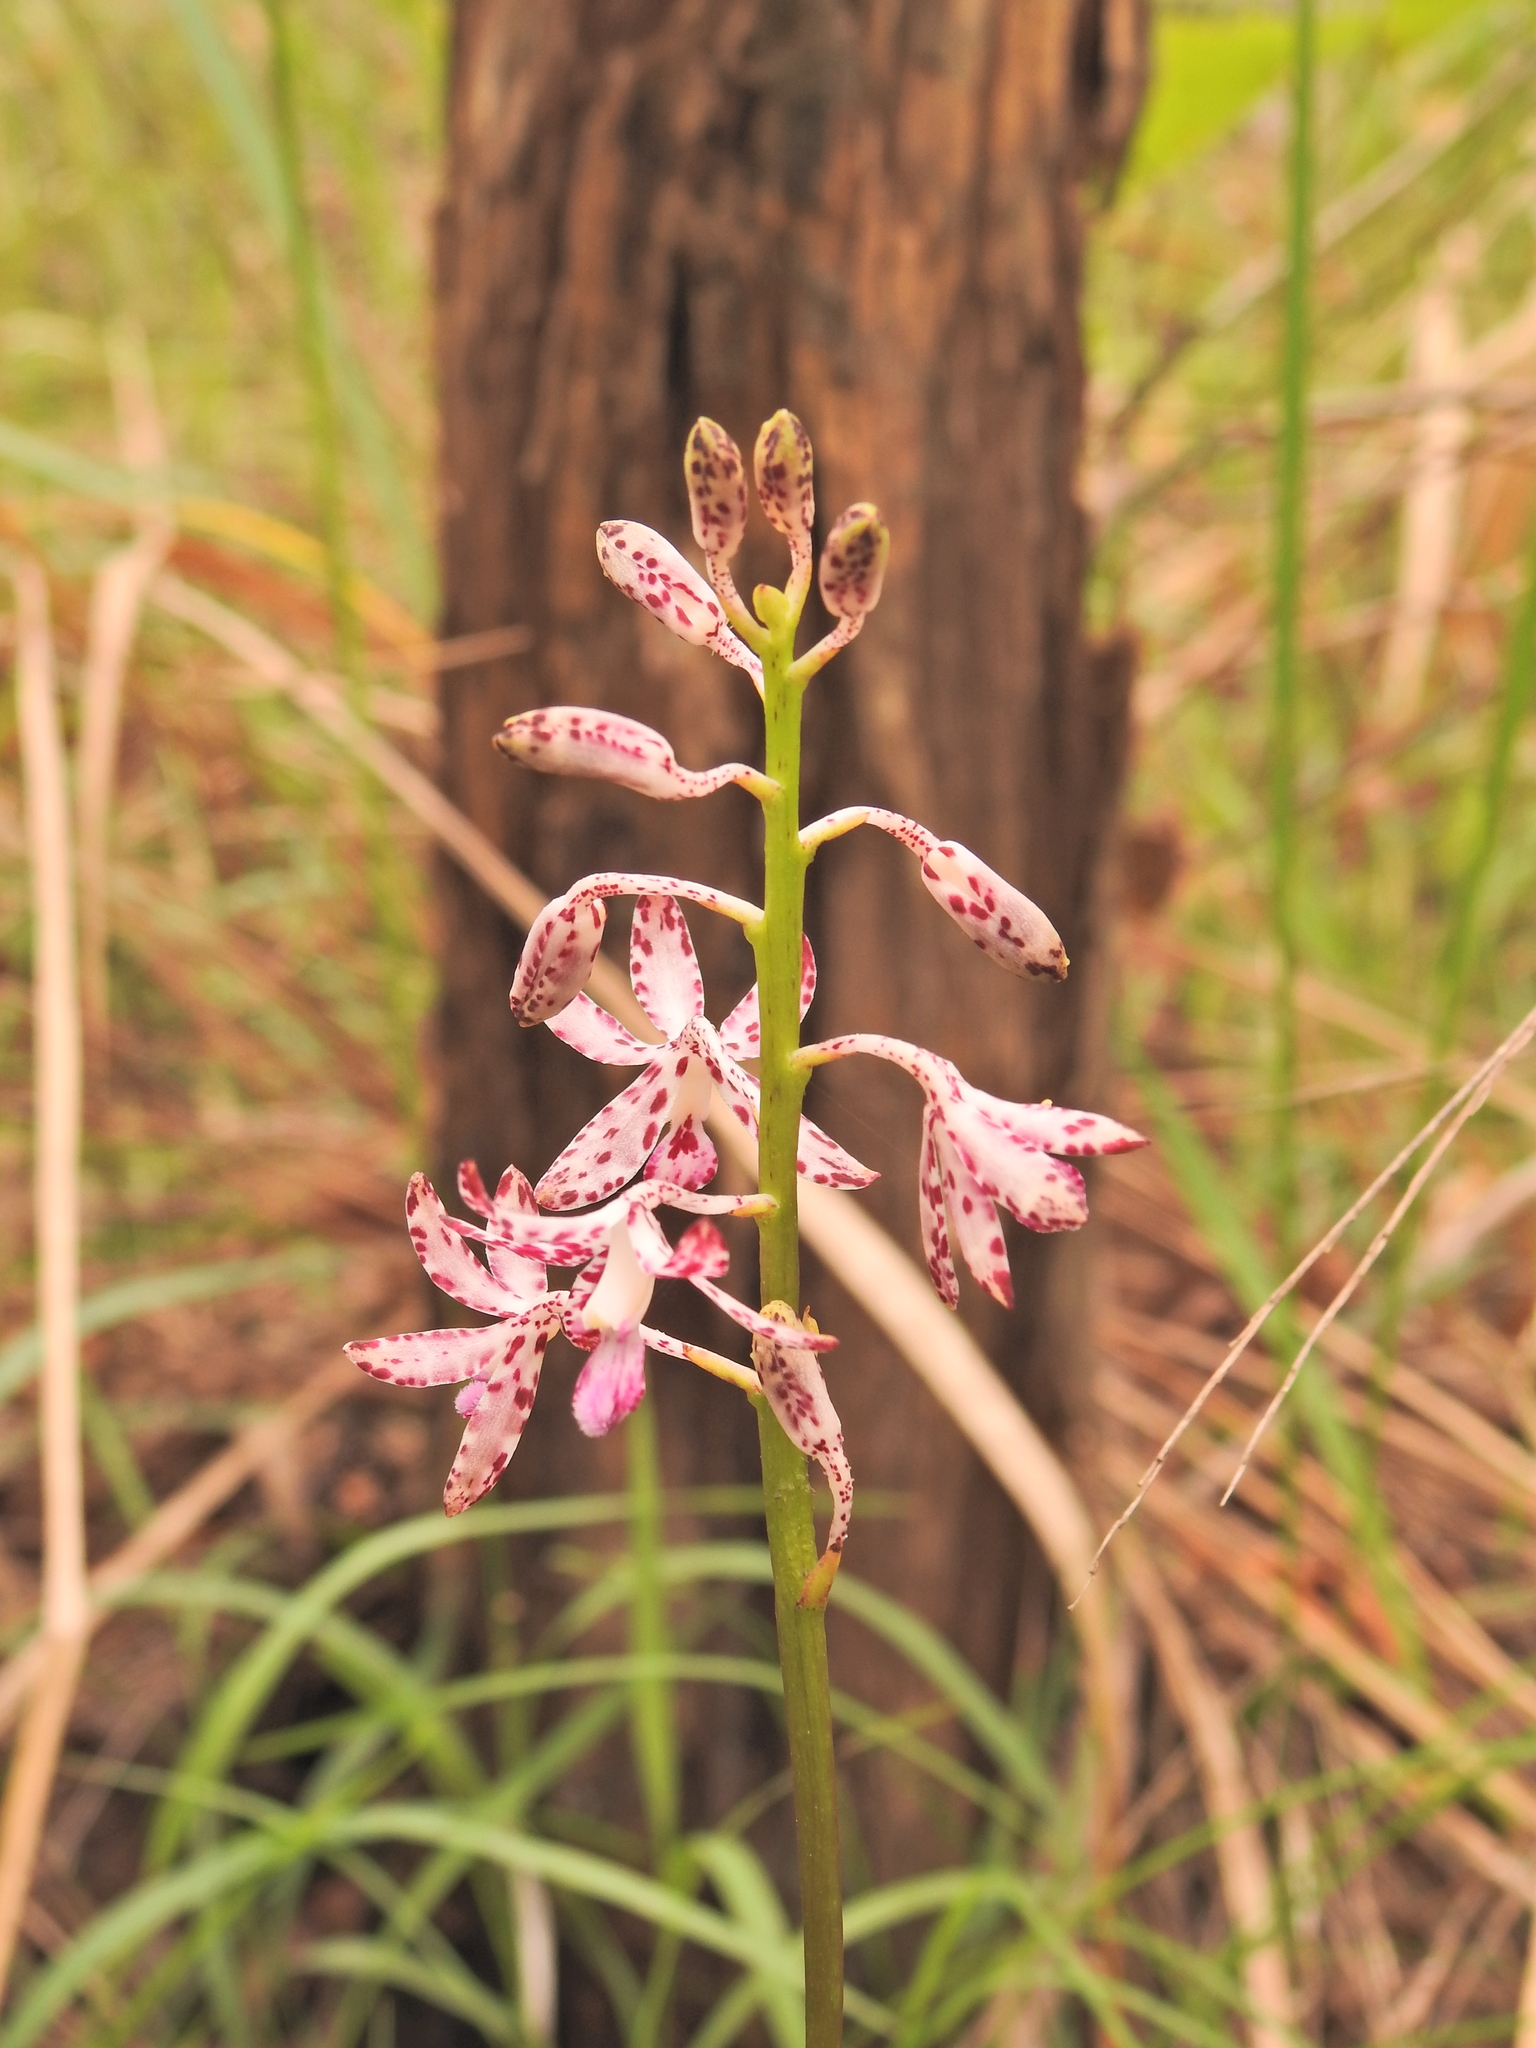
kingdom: Plantae
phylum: Tracheophyta
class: Liliopsida
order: Asparagales
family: Orchidaceae
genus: Dipodium
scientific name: Dipodium variegatum
